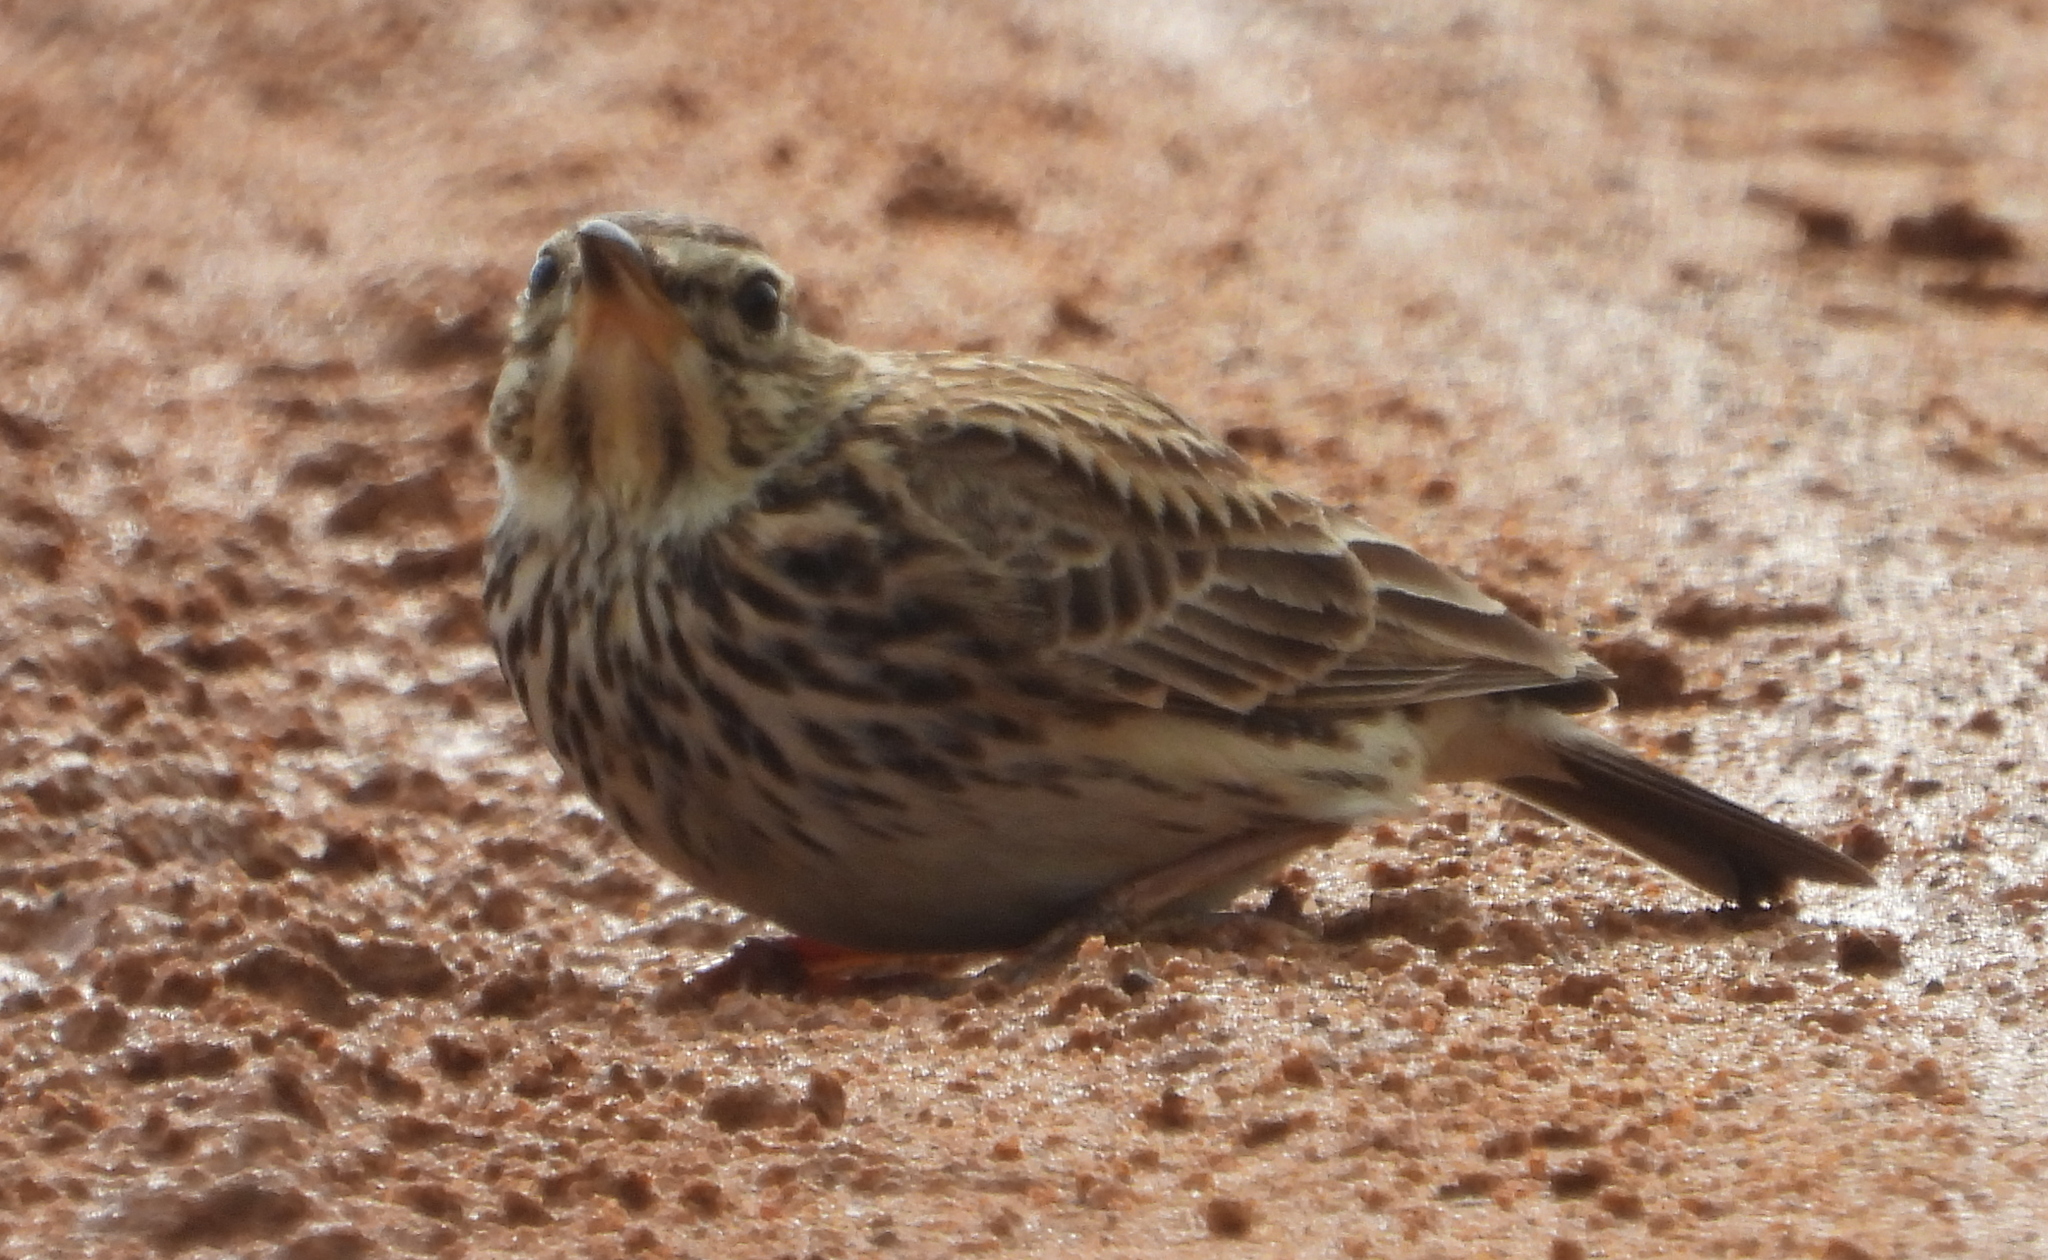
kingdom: Animalia
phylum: Chordata
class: Aves
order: Passeriformes
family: Alaudidae
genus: Galerida
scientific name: Galerida magnirostris
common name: Large-billed lark
